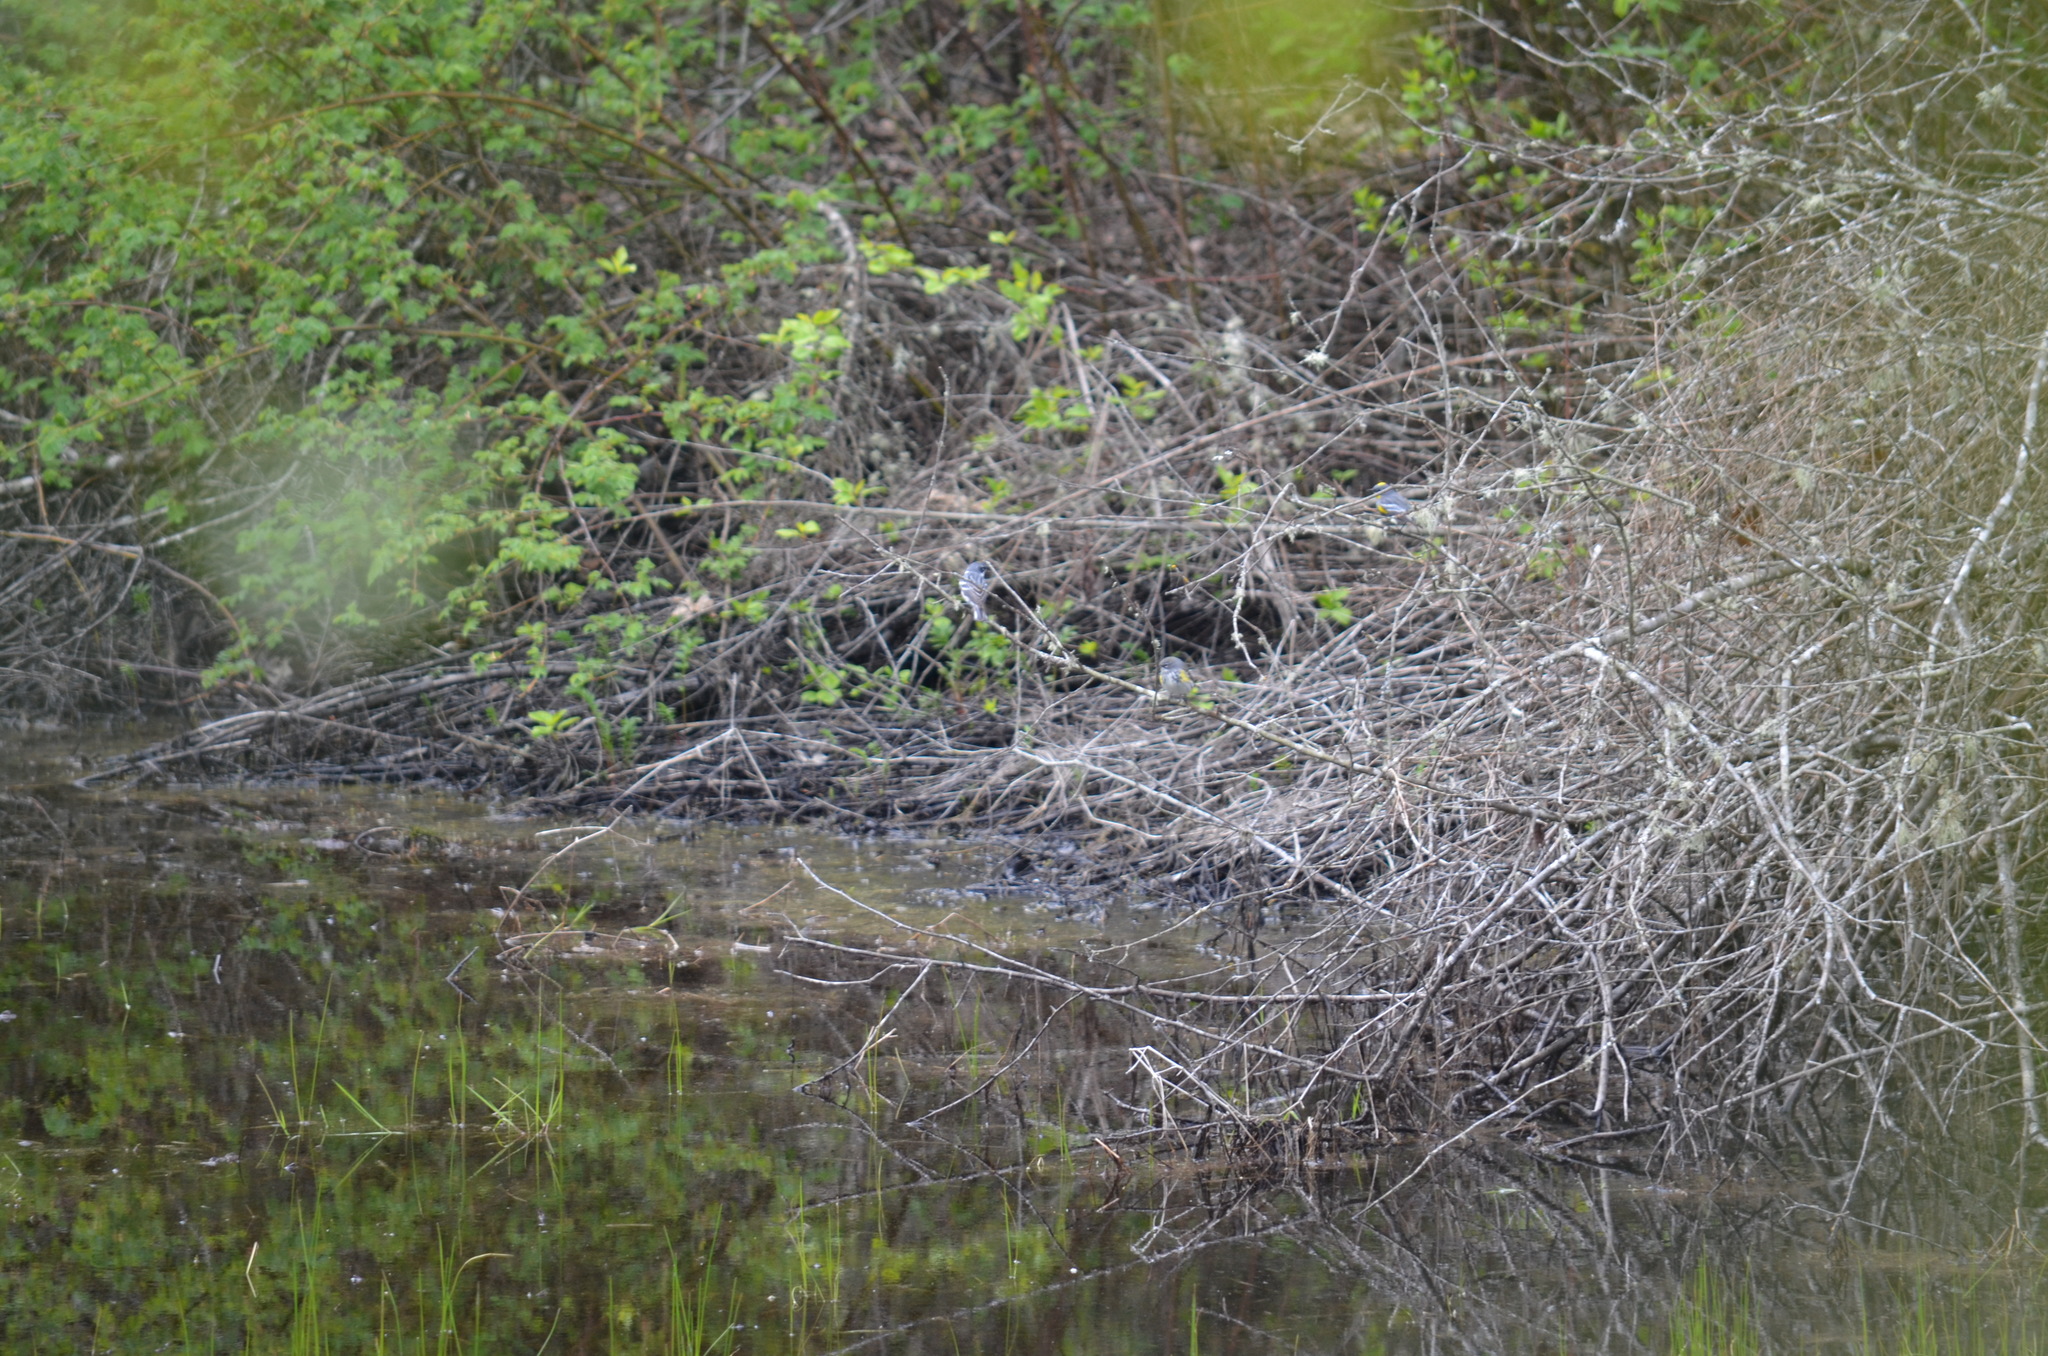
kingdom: Animalia
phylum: Chordata
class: Aves
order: Passeriformes
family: Parulidae
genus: Setophaga
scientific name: Setophaga coronata
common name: Myrtle warbler
